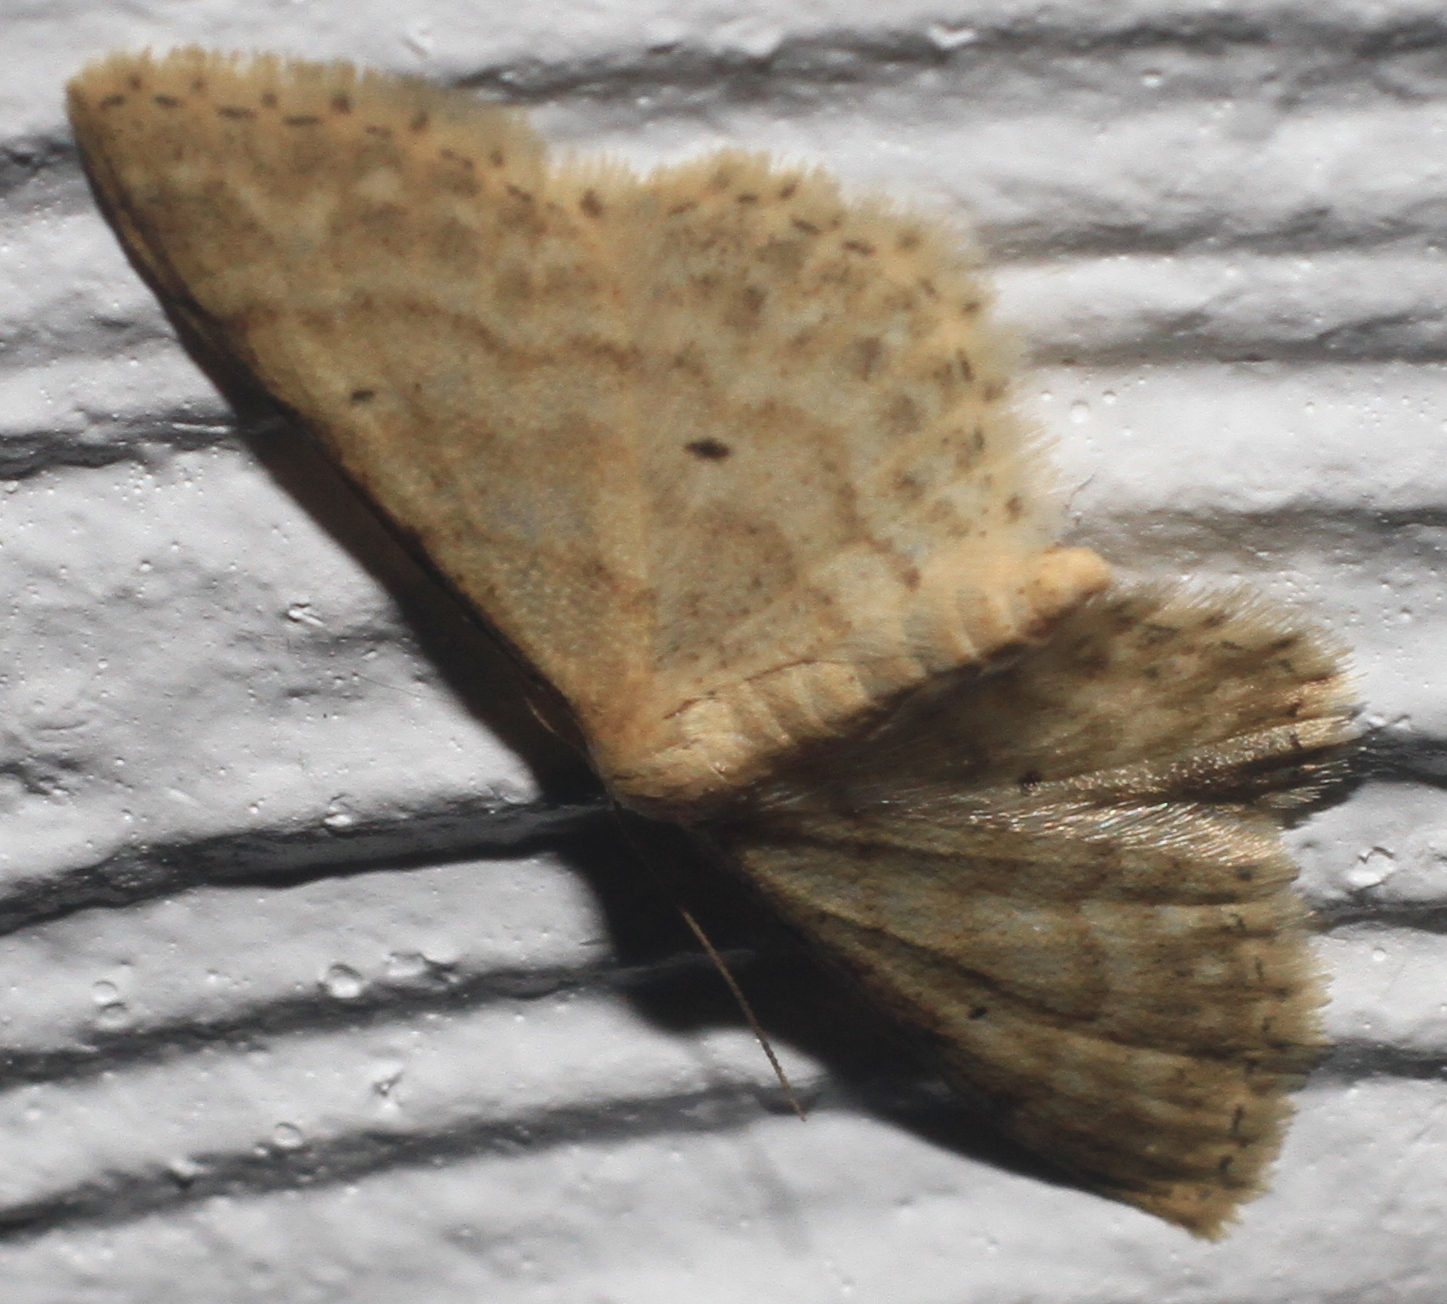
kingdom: Animalia
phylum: Arthropoda
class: Insecta
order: Lepidoptera
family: Geometridae
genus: Idaea
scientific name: Idaea fuscovenosa
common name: Dwarf cream wave
